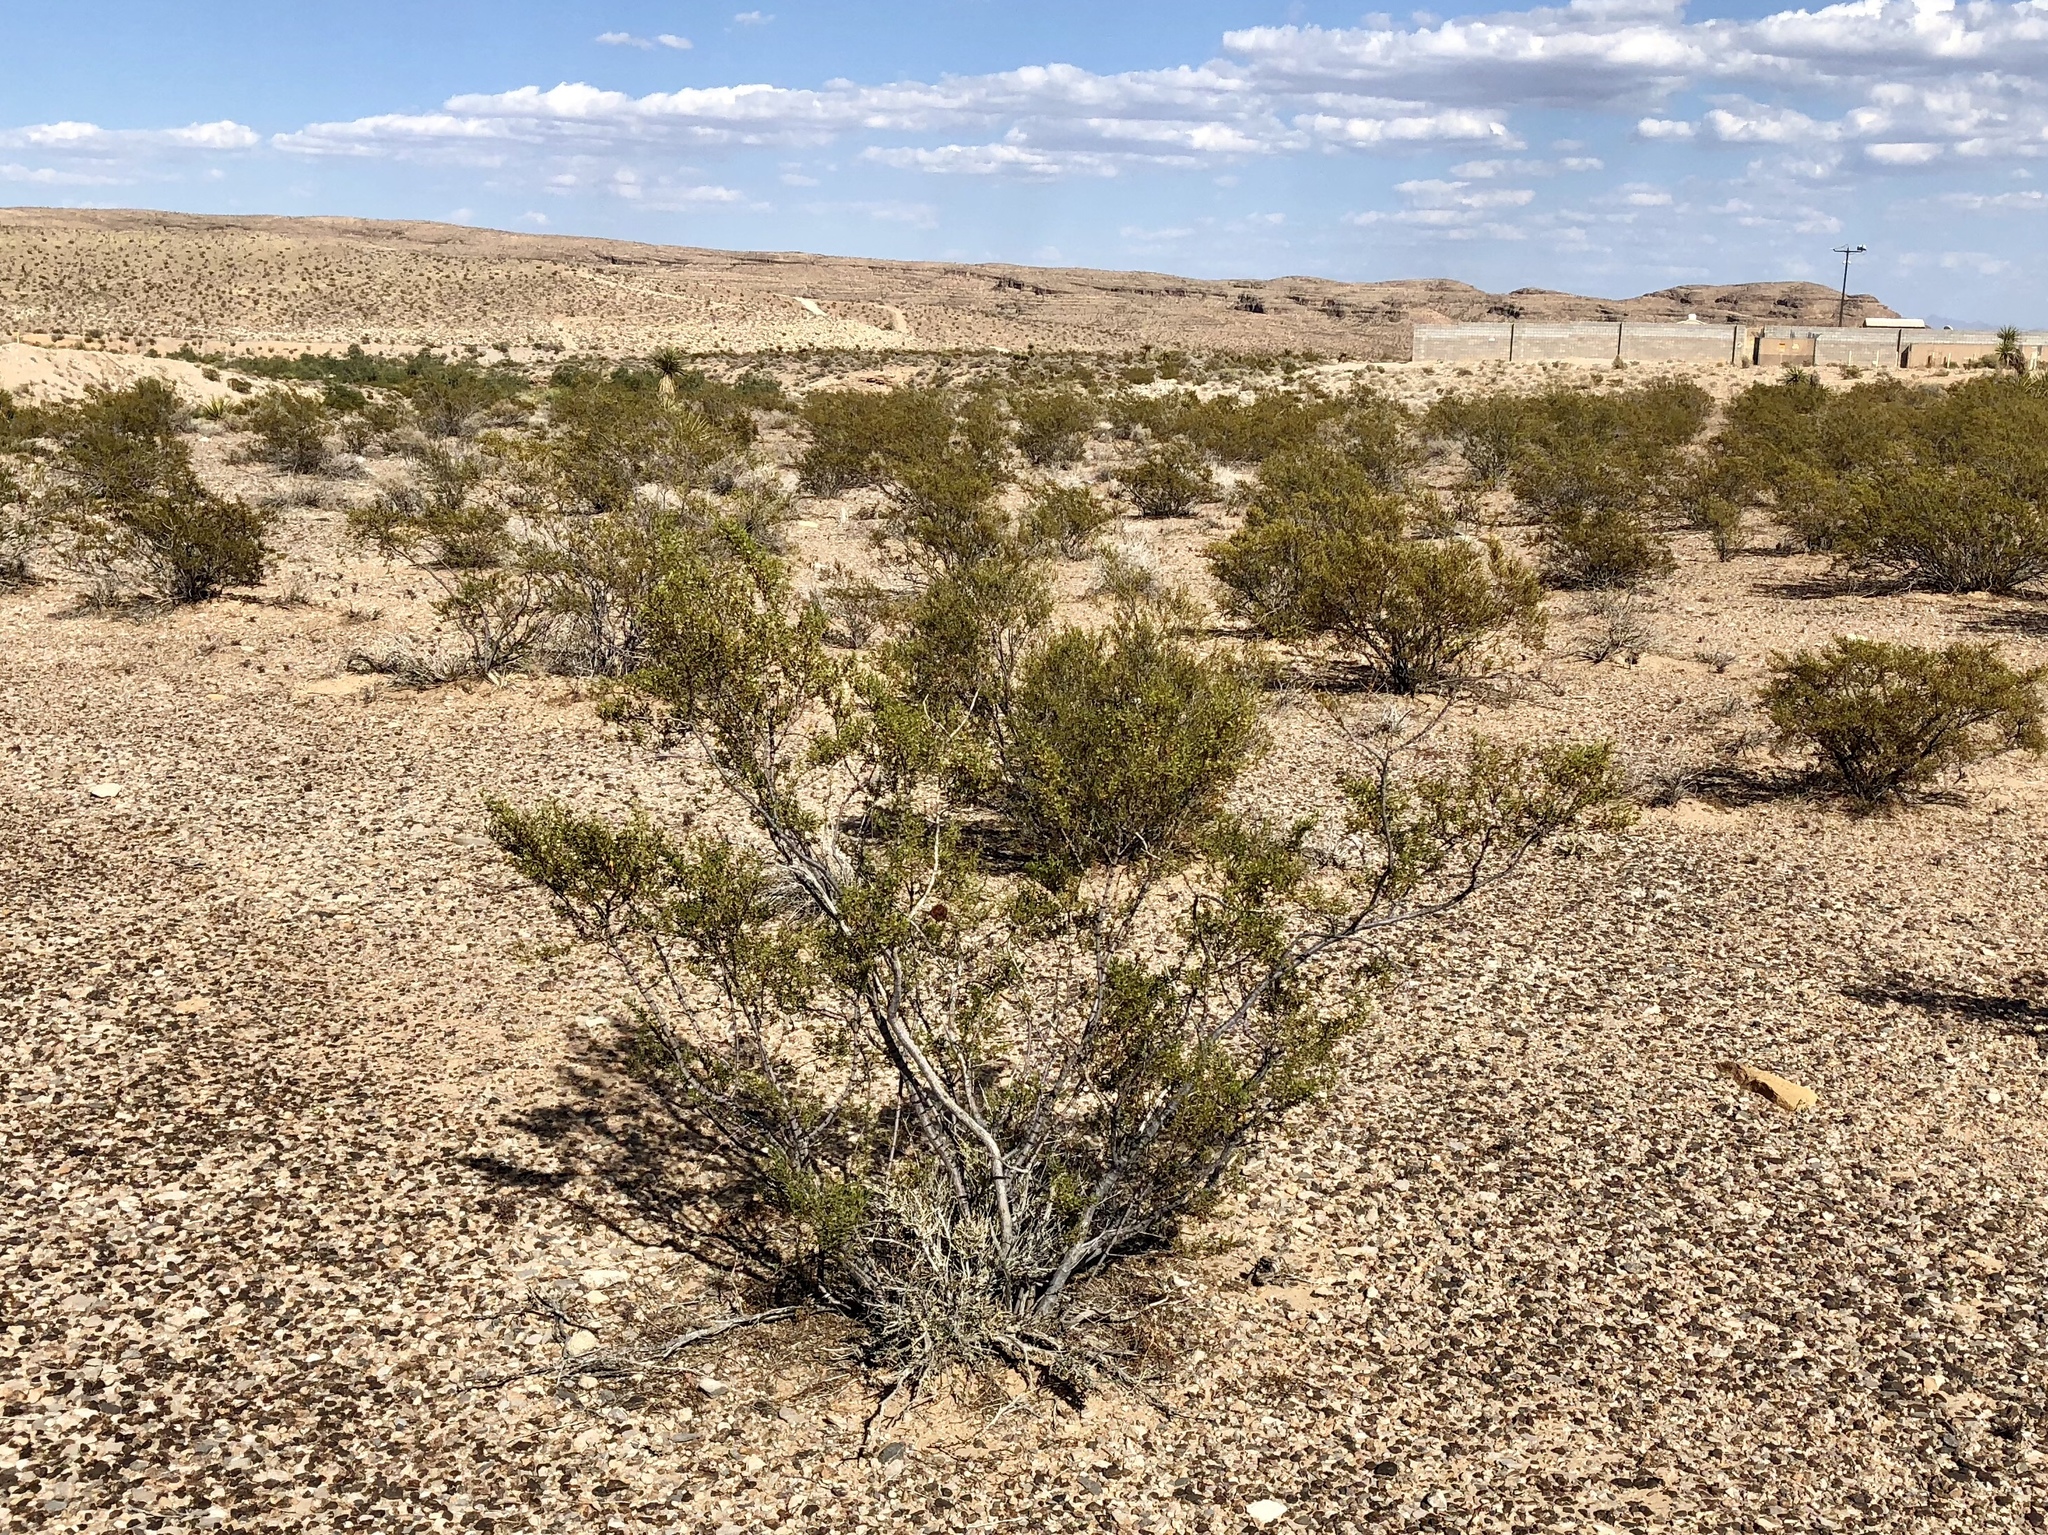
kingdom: Plantae
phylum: Tracheophyta
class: Magnoliopsida
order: Zygophyllales
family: Zygophyllaceae
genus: Larrea
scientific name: Larrea tridentata
